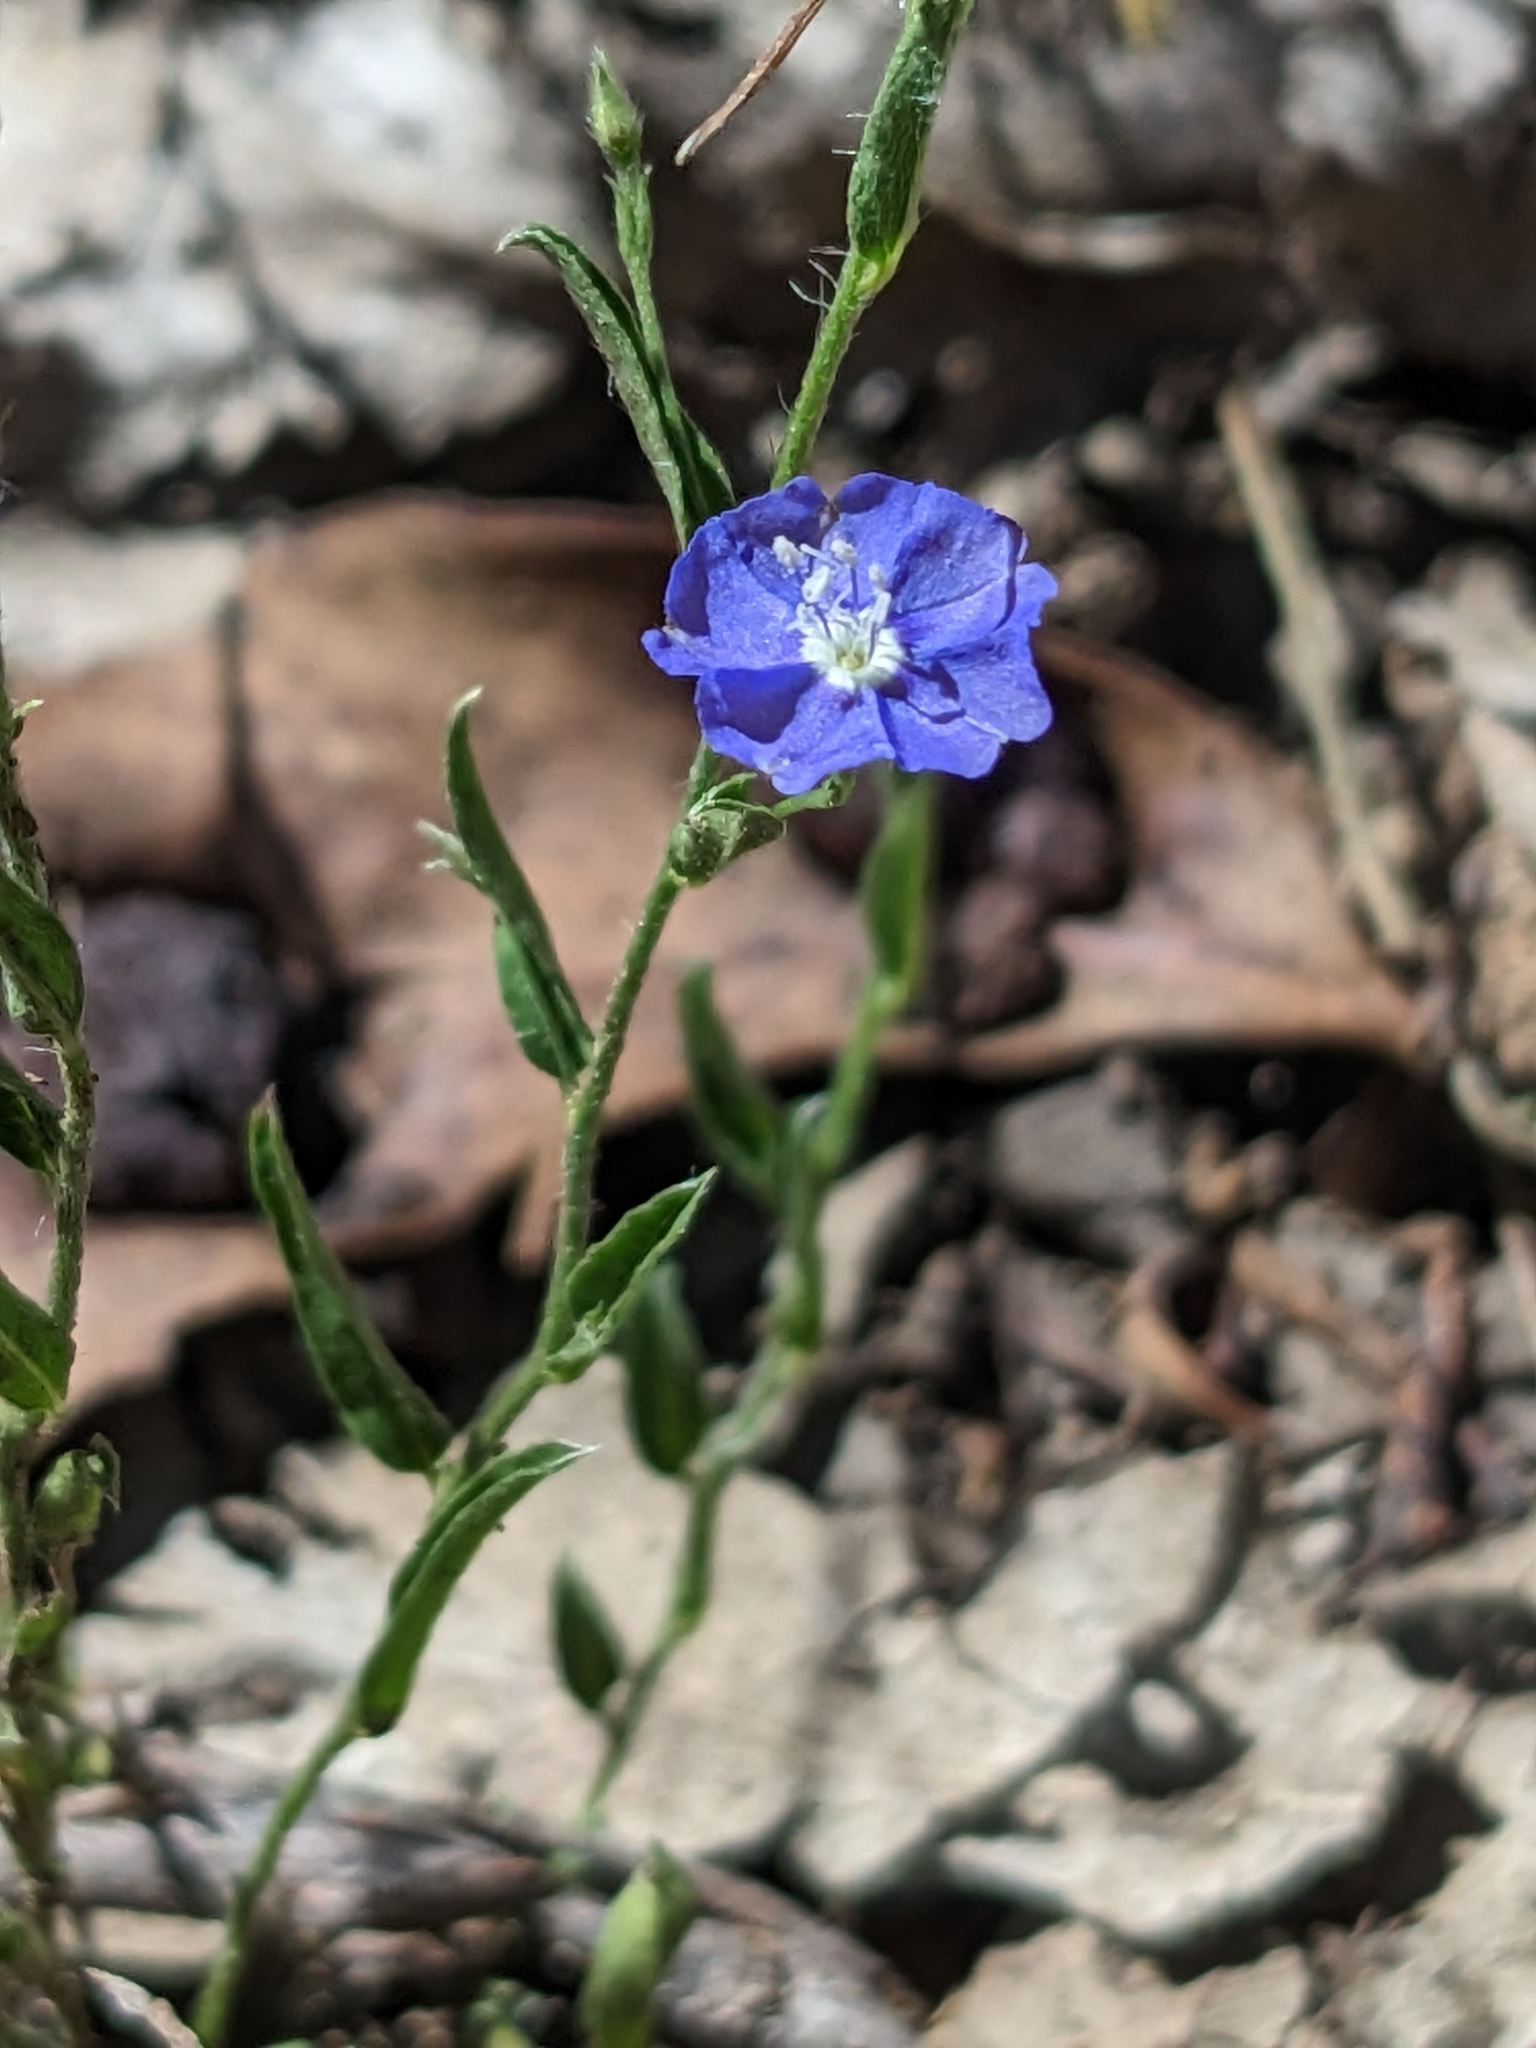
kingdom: Plantae
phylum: Tracheophyta
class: Magnoliopsida
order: Solanales
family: Convolvulaceae
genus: Evolvulus
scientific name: Evolvulus alsinoides
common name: Slender dwarf morning-glory
